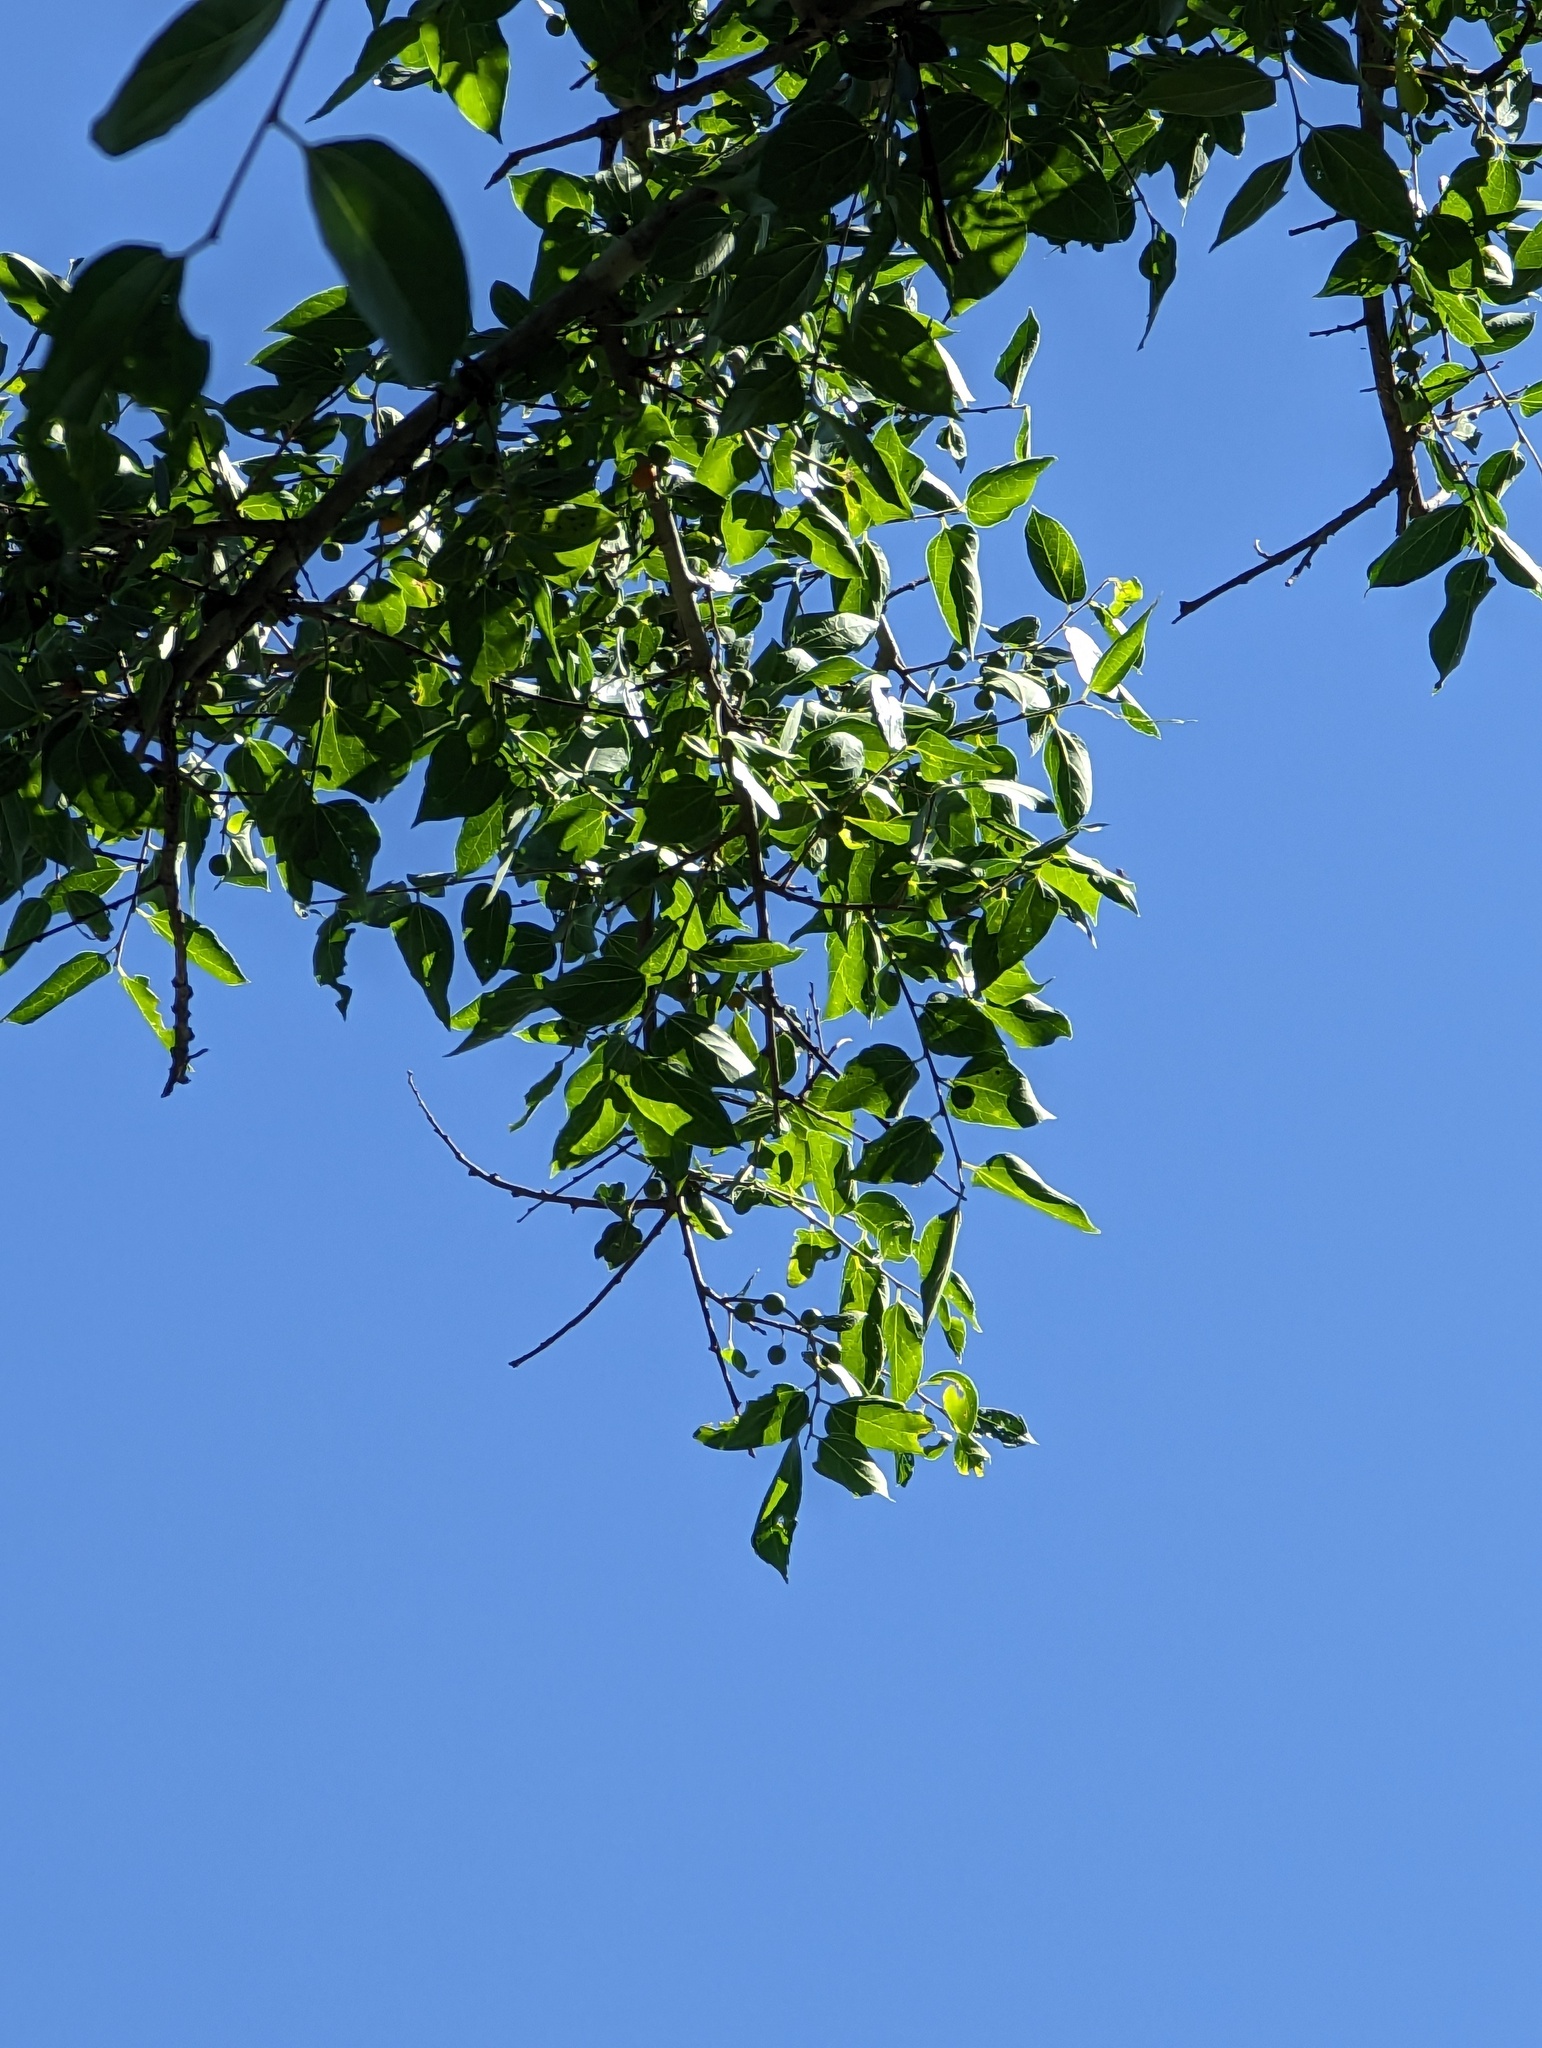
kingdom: Plantae
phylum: Tracheophyta
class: Magnoliopsida
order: Rosales
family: Cannabaceae
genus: Celtis
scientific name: Celtis reticulata
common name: Netleaf hackberry
